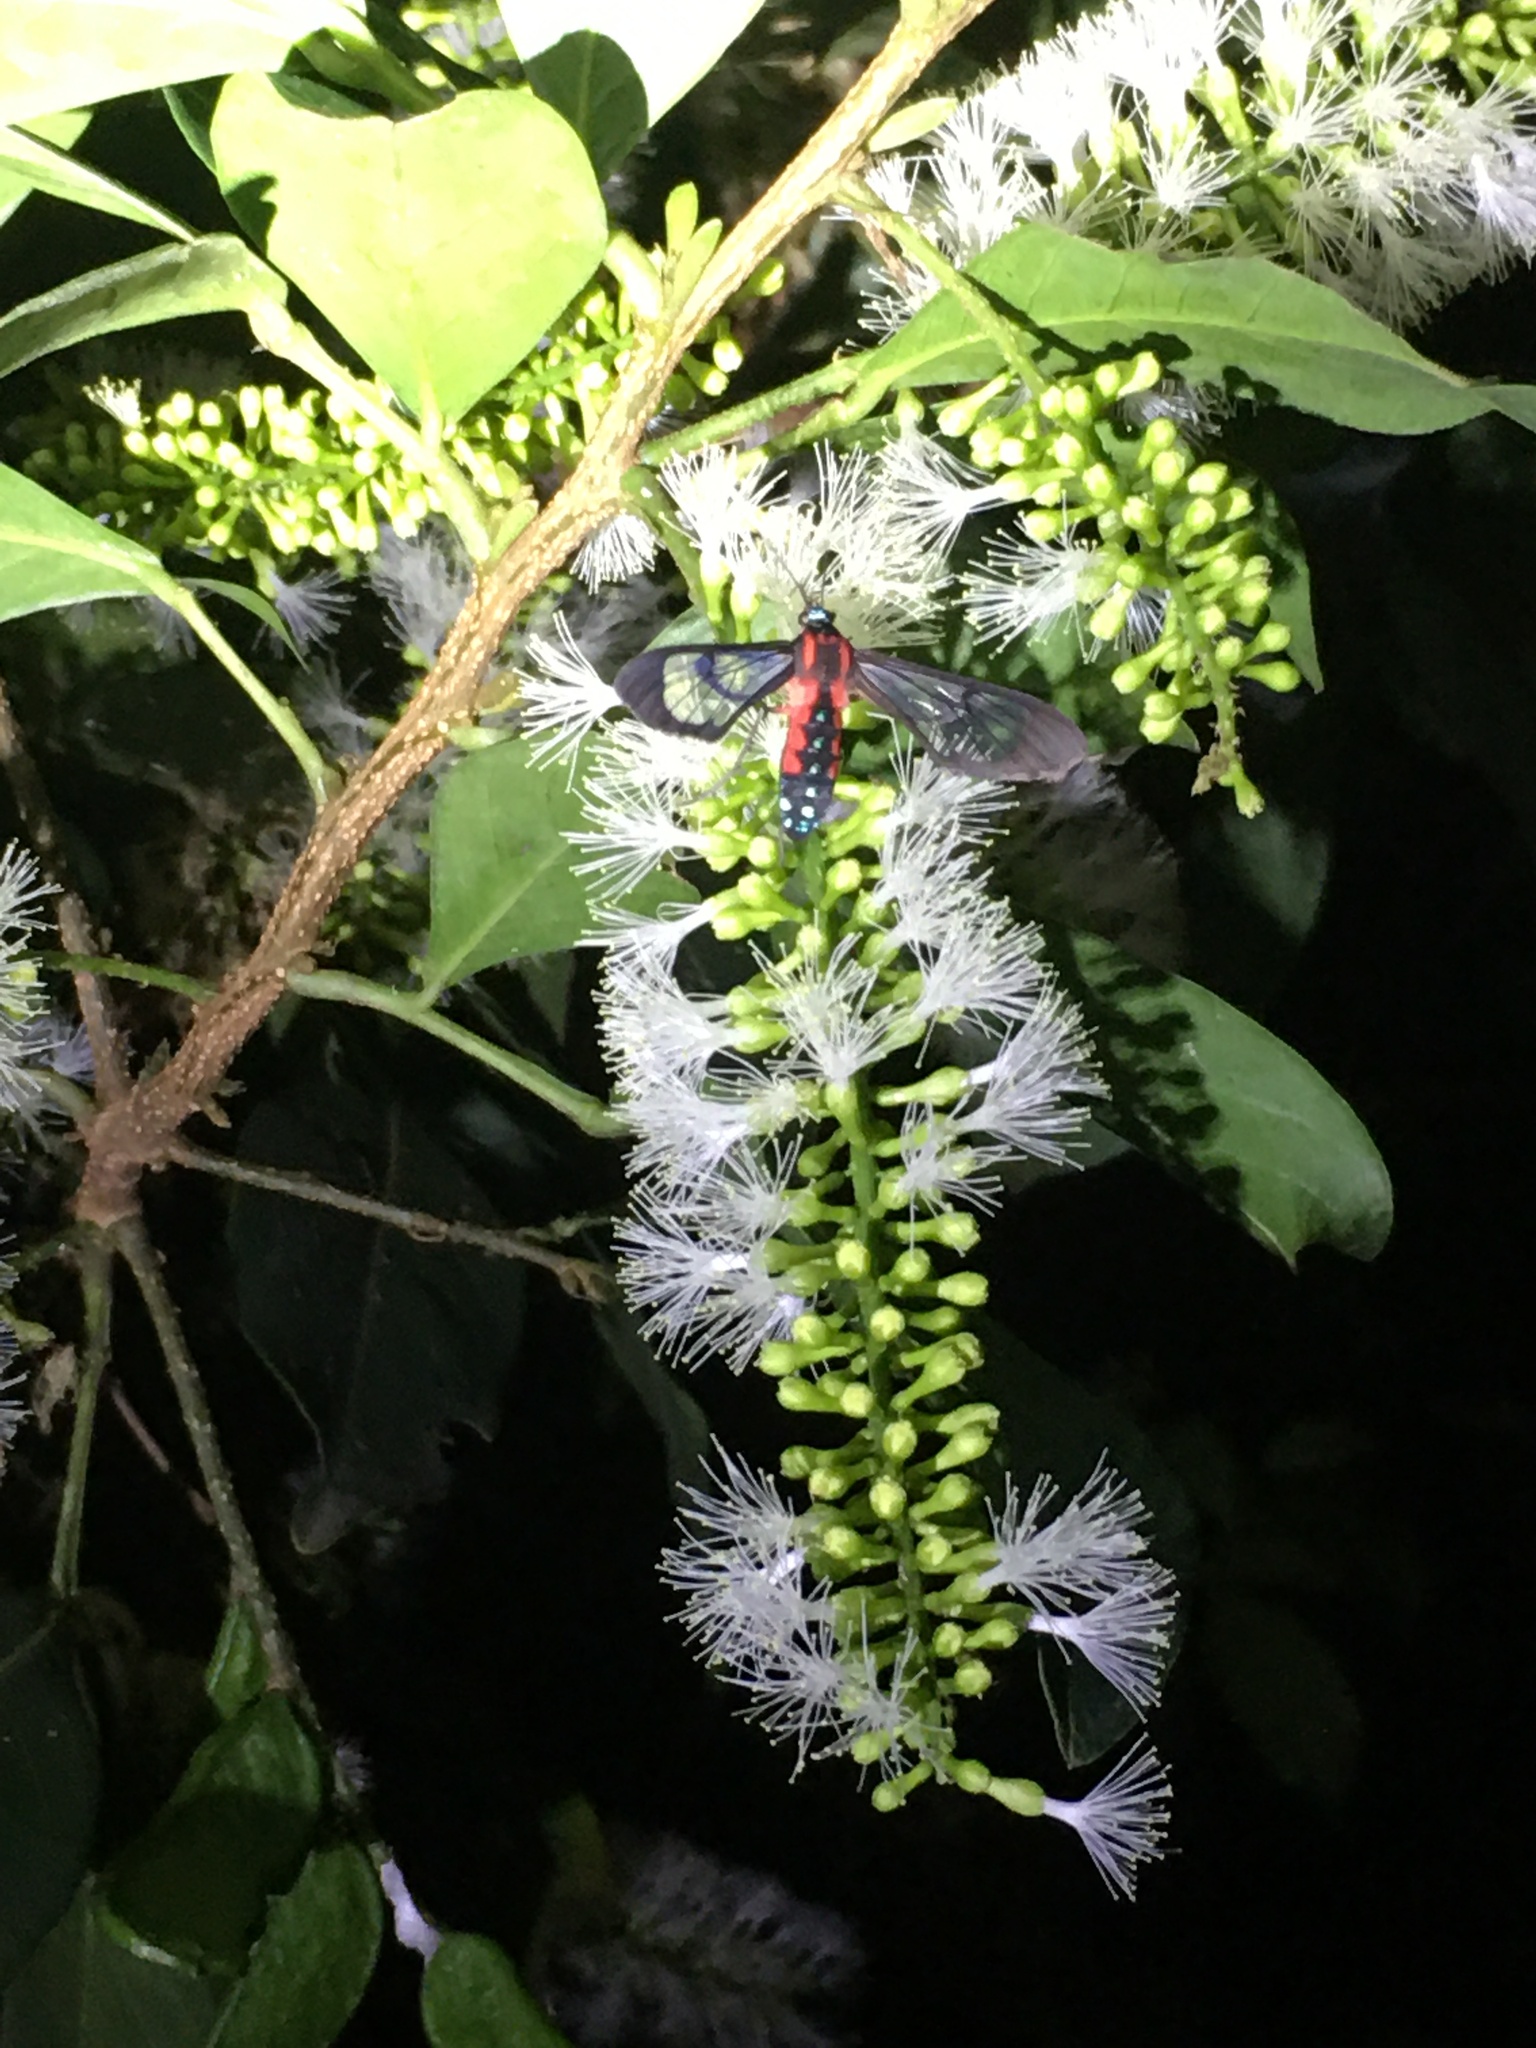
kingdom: Animalia
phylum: Arthropoda
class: Insecta
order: Lepidoptera
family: Erebidae
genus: Cosmosoma
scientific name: Cosmosoma auge
